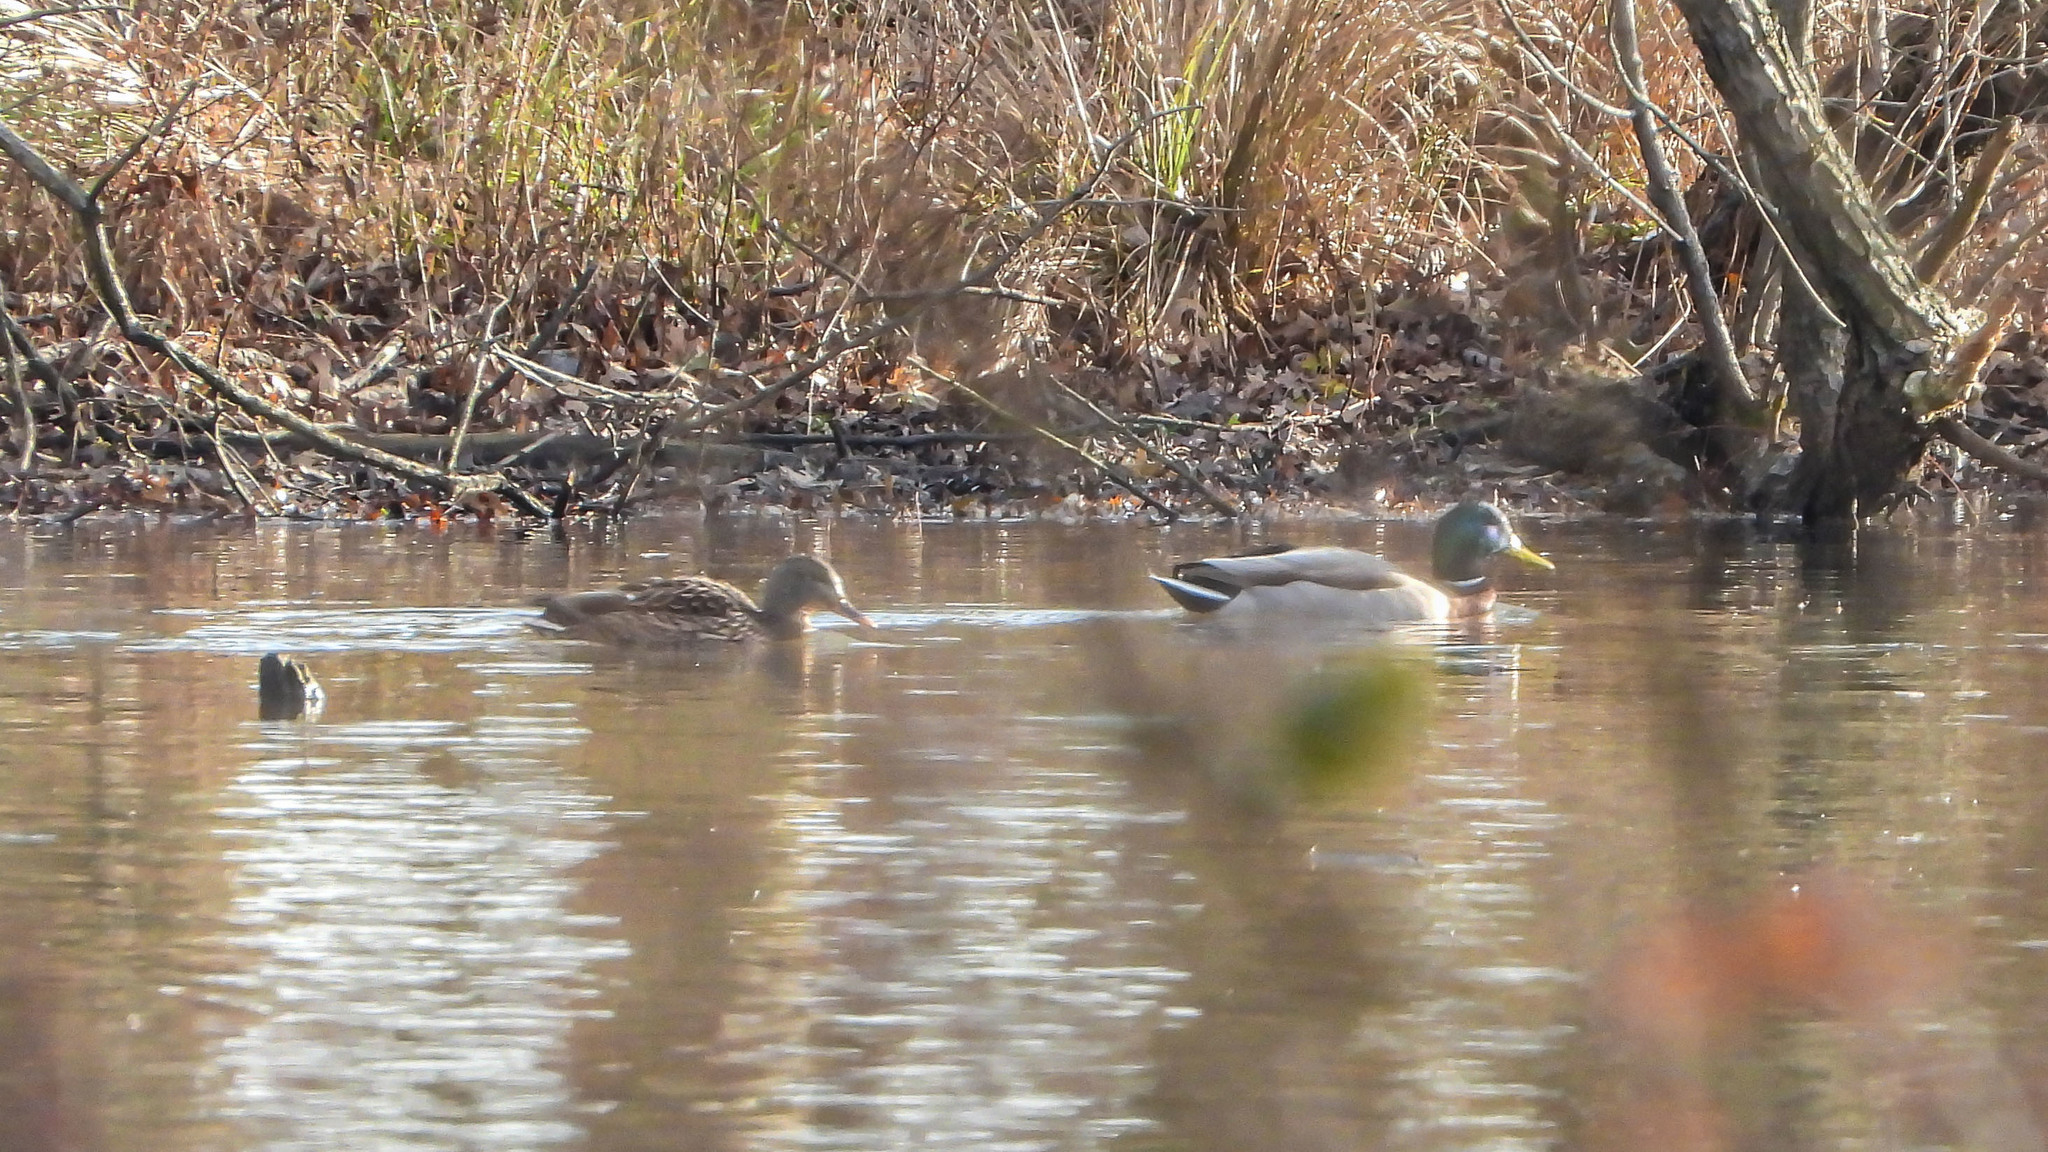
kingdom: Animalia
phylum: Chordata
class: Aves
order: Anseriformes
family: Anatidae
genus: Anas
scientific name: Anas platyrhynchos
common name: Mallard
